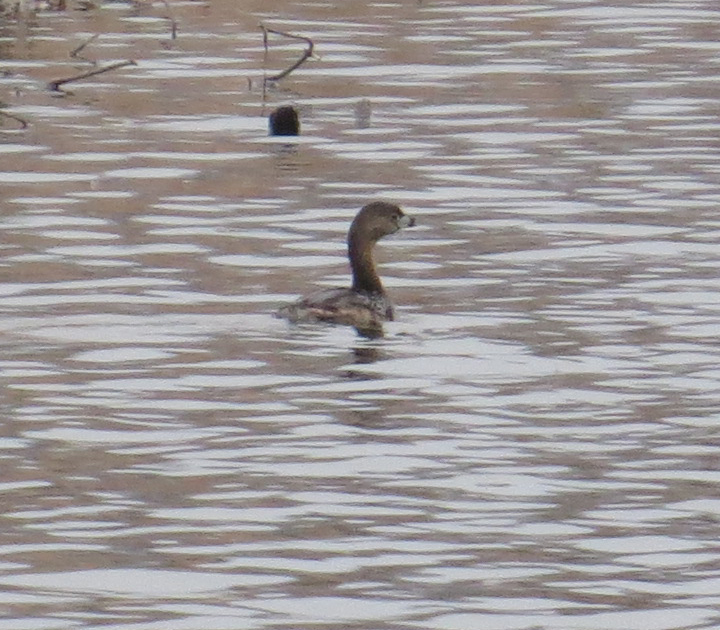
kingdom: Animalia
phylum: Chordata
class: Aves
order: Podicipediformes
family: Podicipedidae
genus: Podilymbus
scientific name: Podilymbus podiceps
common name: Pied-billed grebe
